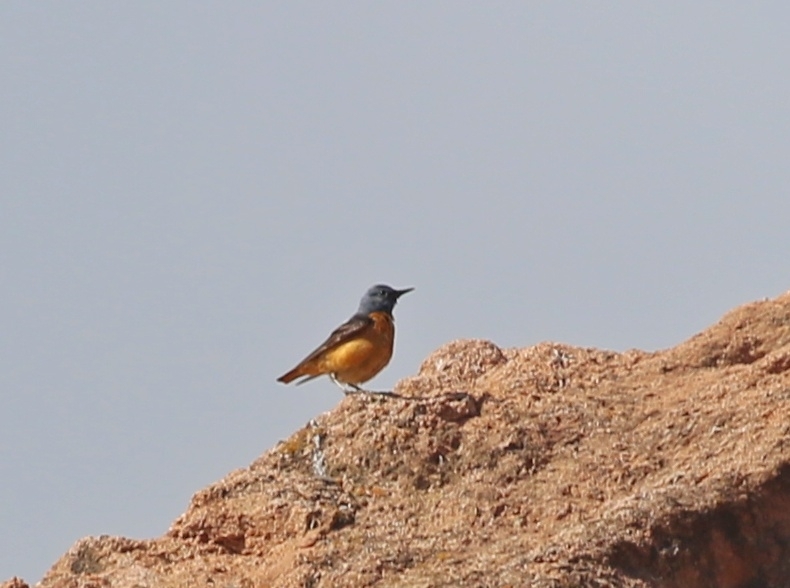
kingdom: Animalia
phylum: Chordata
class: Aves
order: Passeriformes
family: Muscicapidae
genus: Monticola
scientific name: Monticola saxatilis
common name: Rufous-tailed rock thrush
